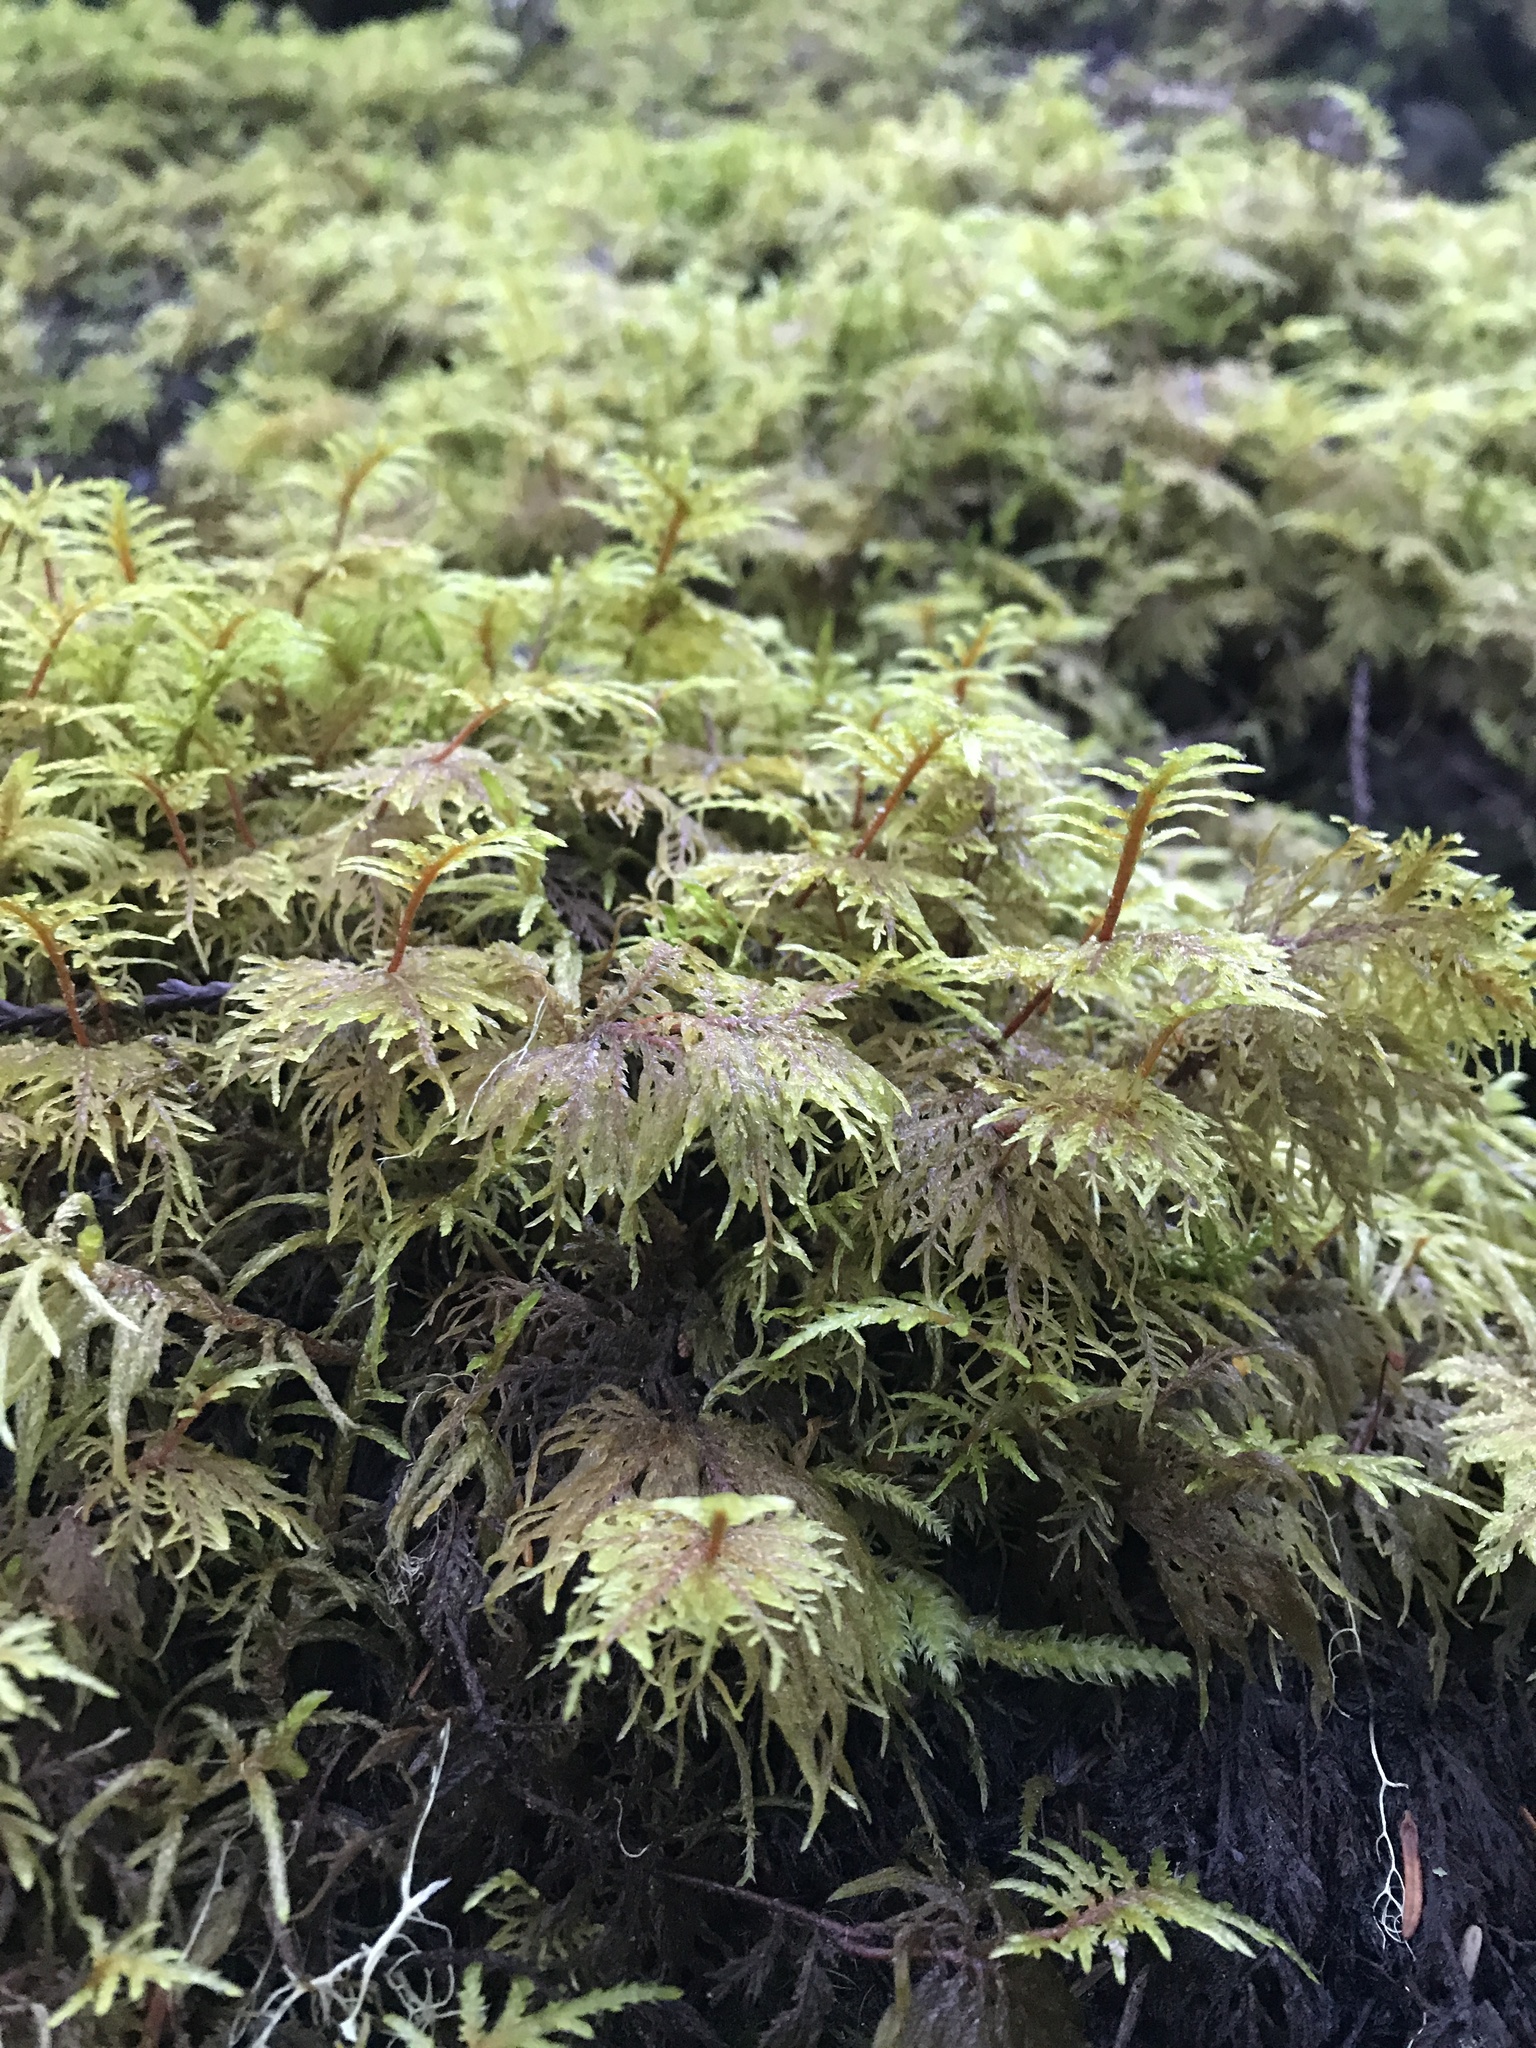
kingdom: Plantae
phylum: Bryophyta
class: Bryopsida
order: Hypnales
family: Hylocomiaceae
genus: Hylocomium
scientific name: Hylocomium splendens
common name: Stairstep moss
